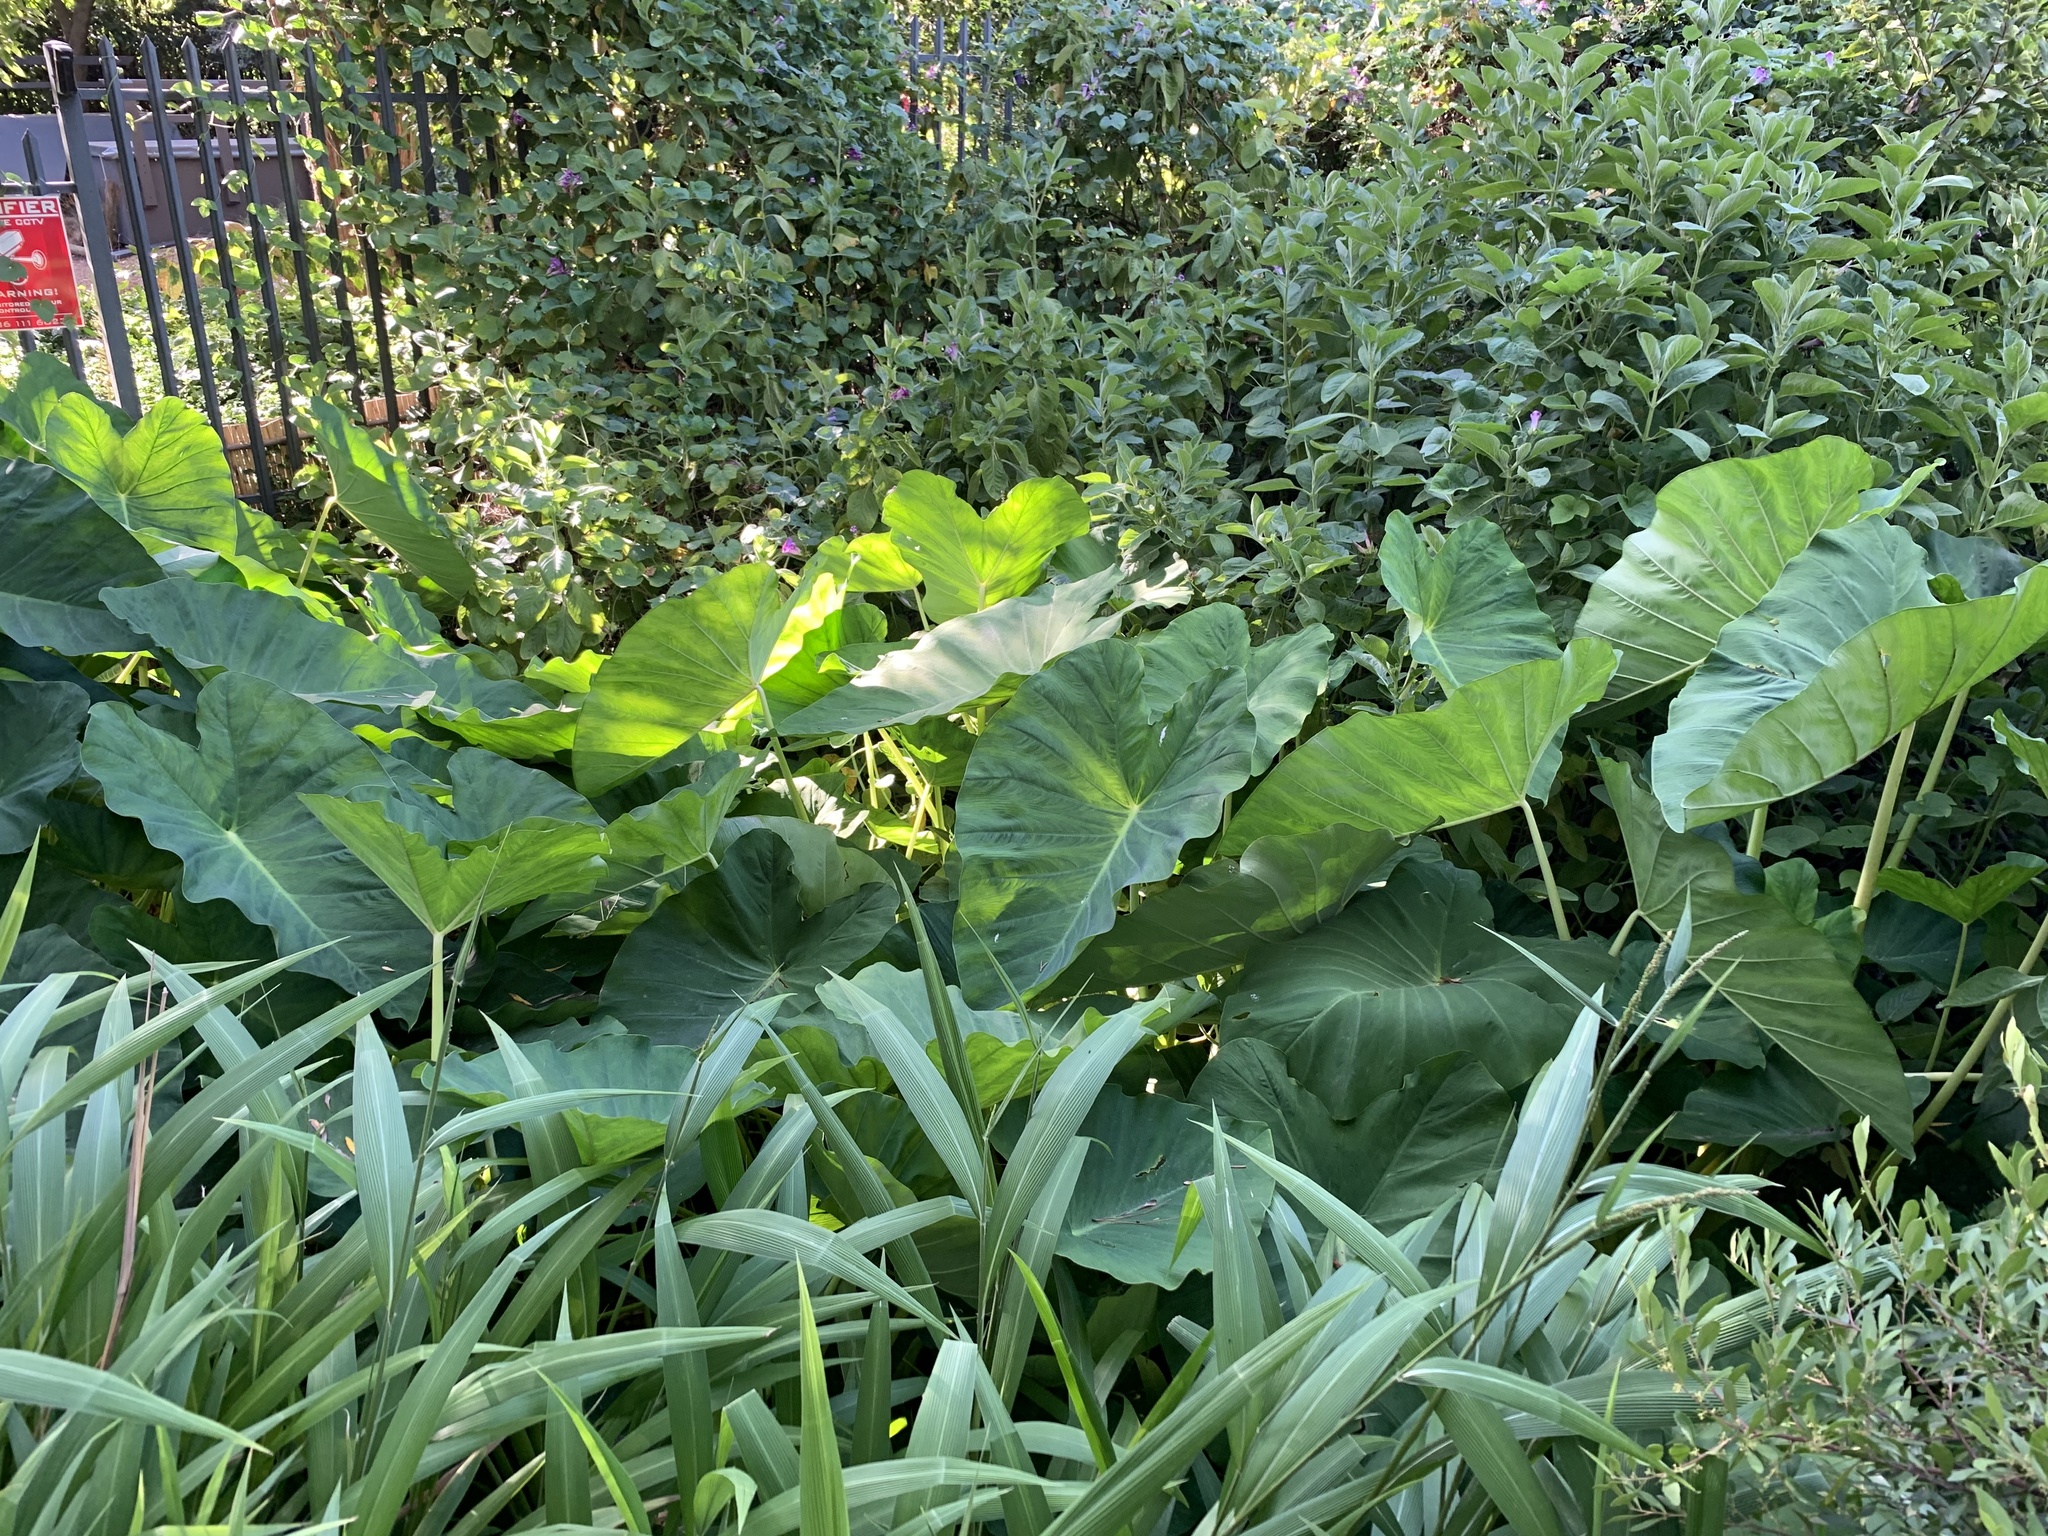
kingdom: Plantae
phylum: Tracheophyta
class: Liliopsida
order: Alismatales
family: Araceae
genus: Colocasia
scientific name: Colocasia esculenta
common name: Taro
